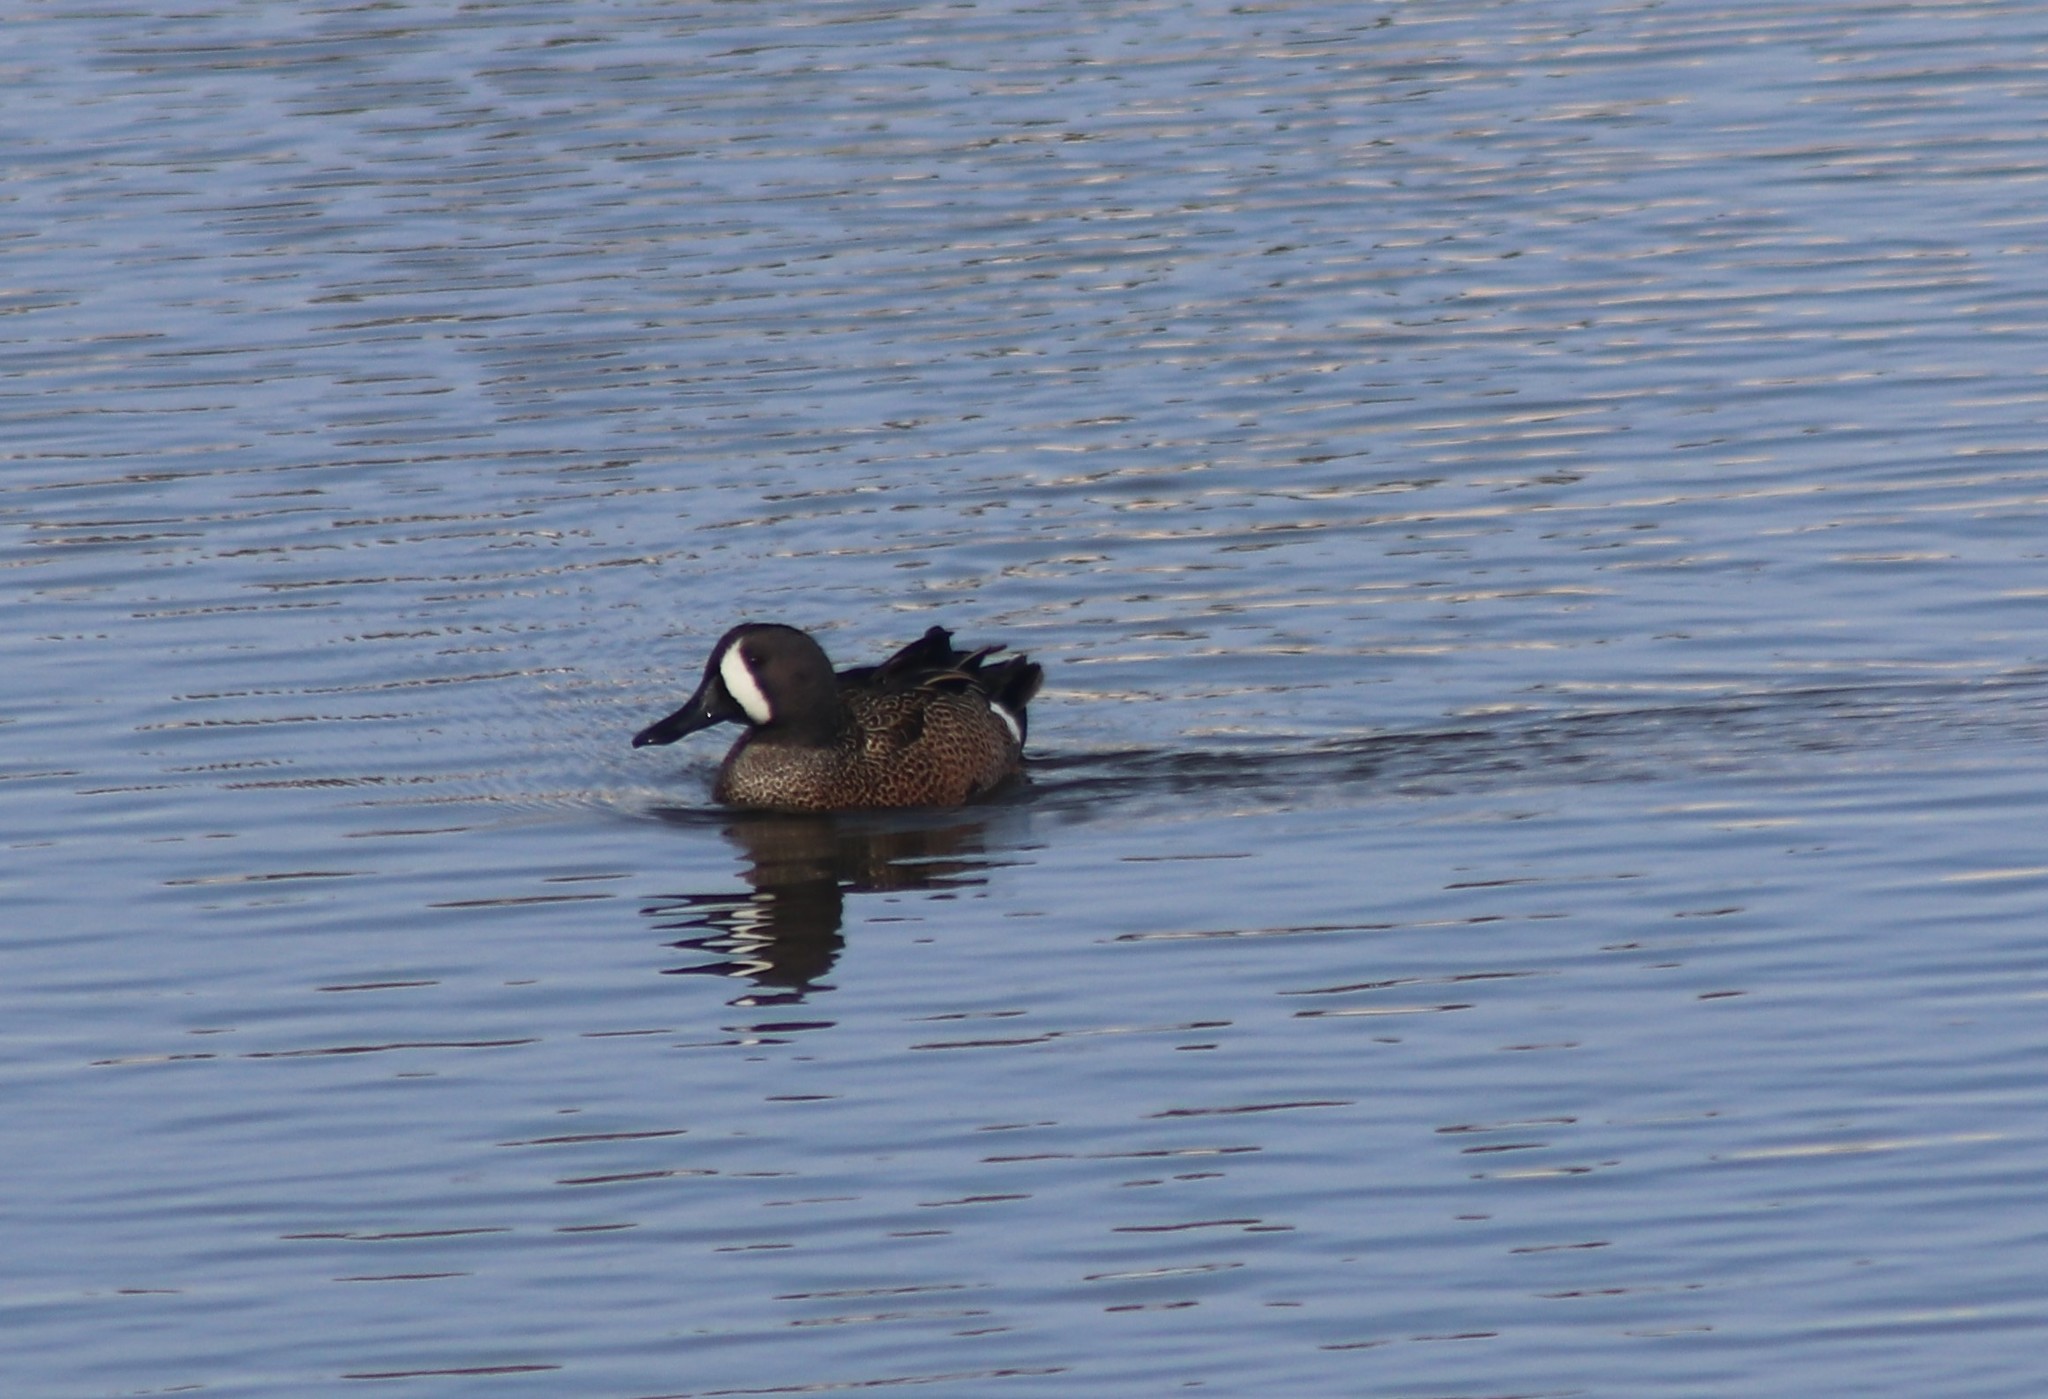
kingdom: Animalia
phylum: Chordata
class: Aves
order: Anseriformes
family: Anatidae
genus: Spatula
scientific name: Spatula discors
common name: Blue-winged teal
